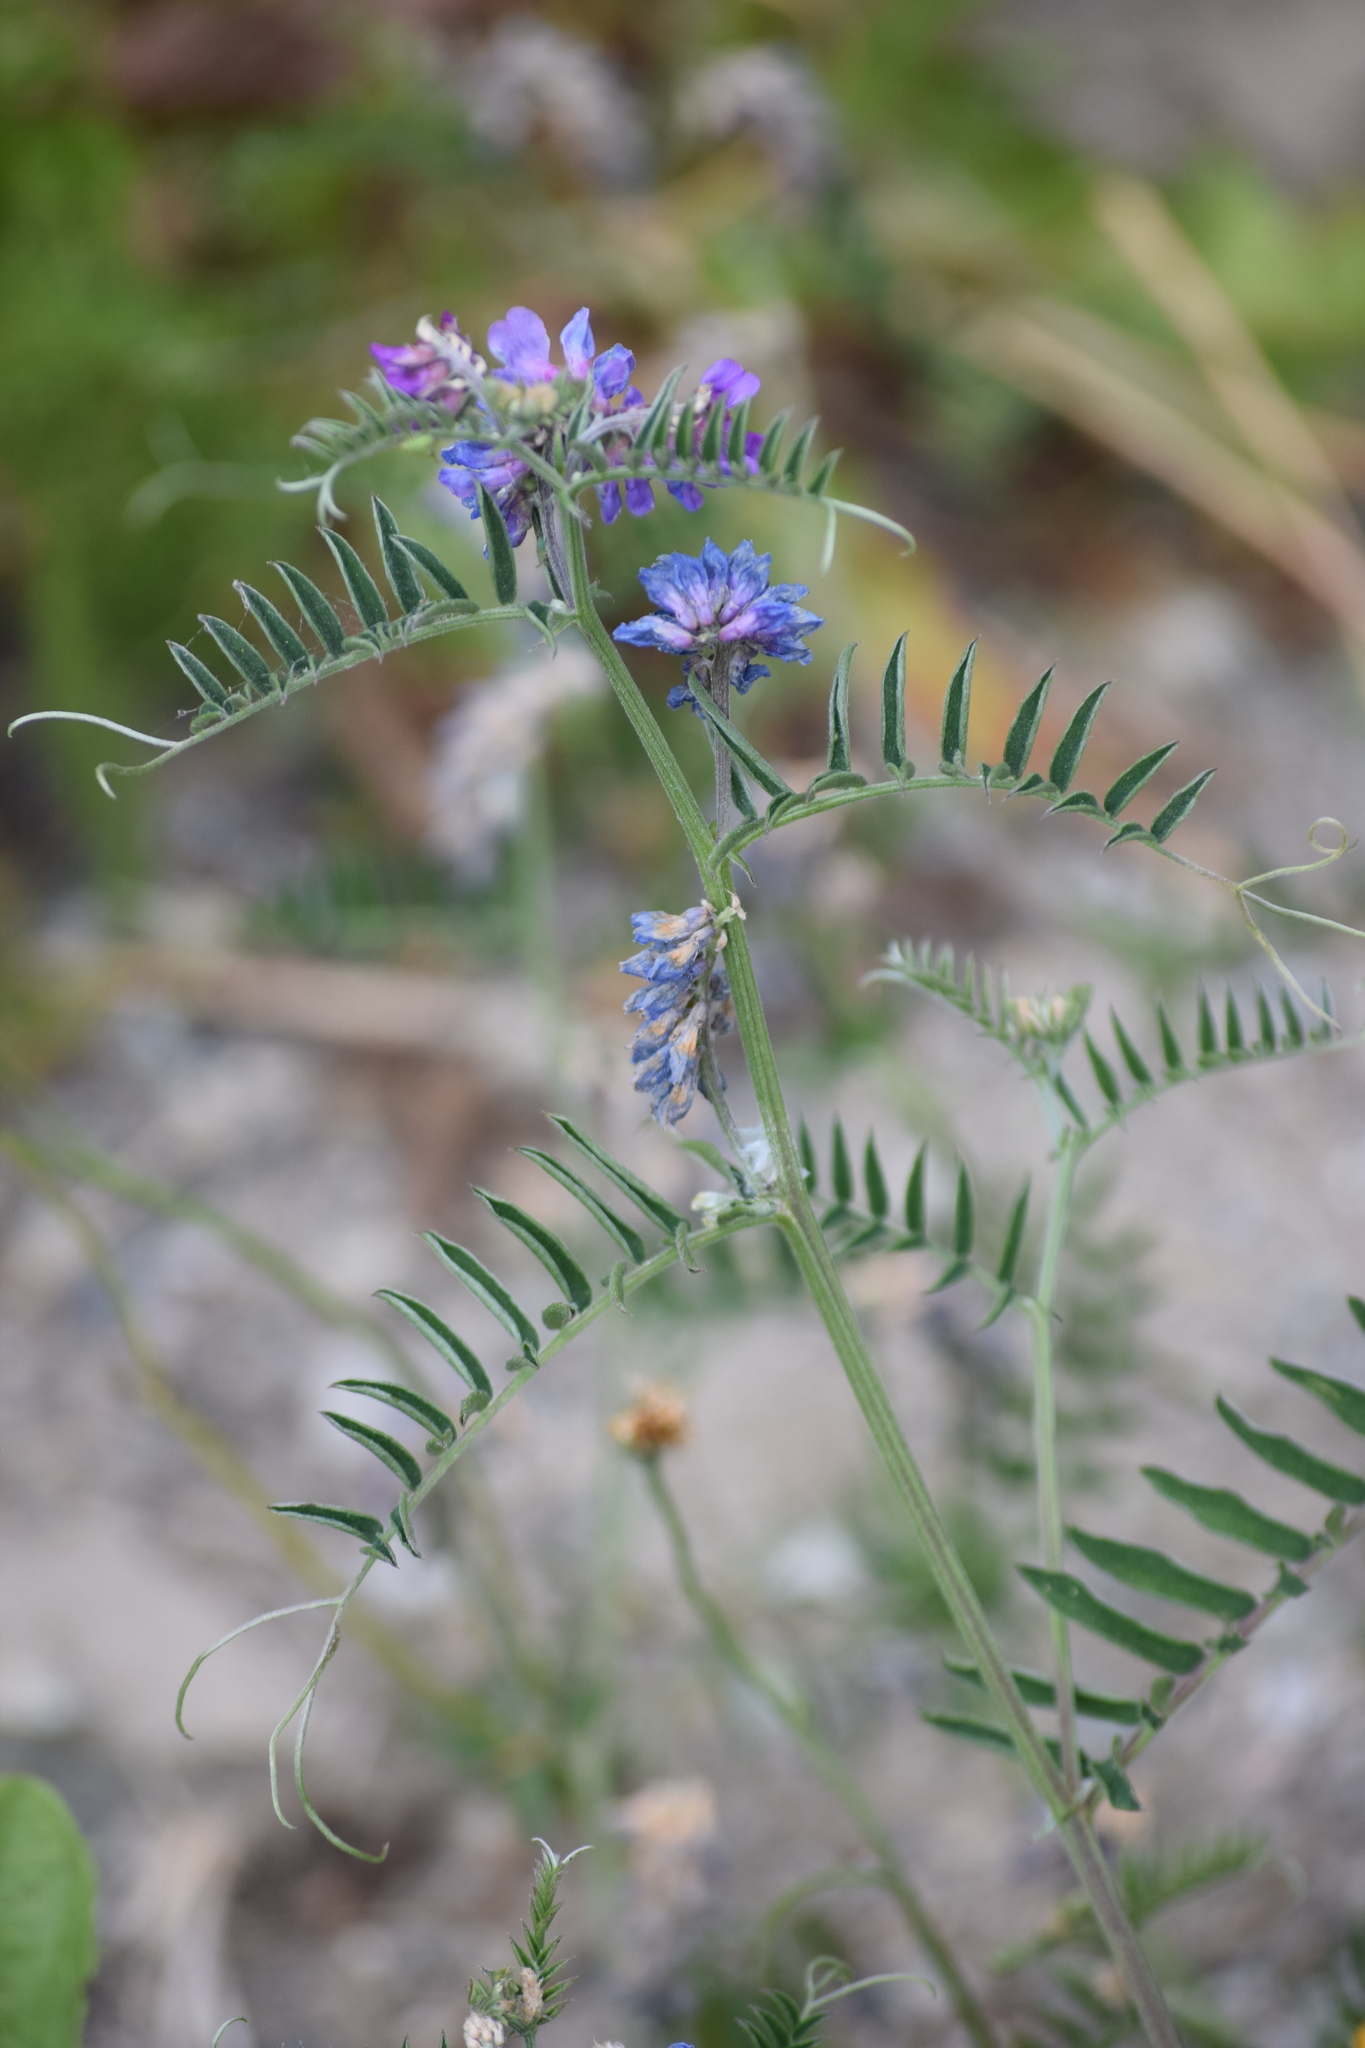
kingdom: Plantae
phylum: Tracheophyta
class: Magnoliopsida
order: Fabales
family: Fabaceae
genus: Vicia
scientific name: Vicia cracca
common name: Bird vetch
